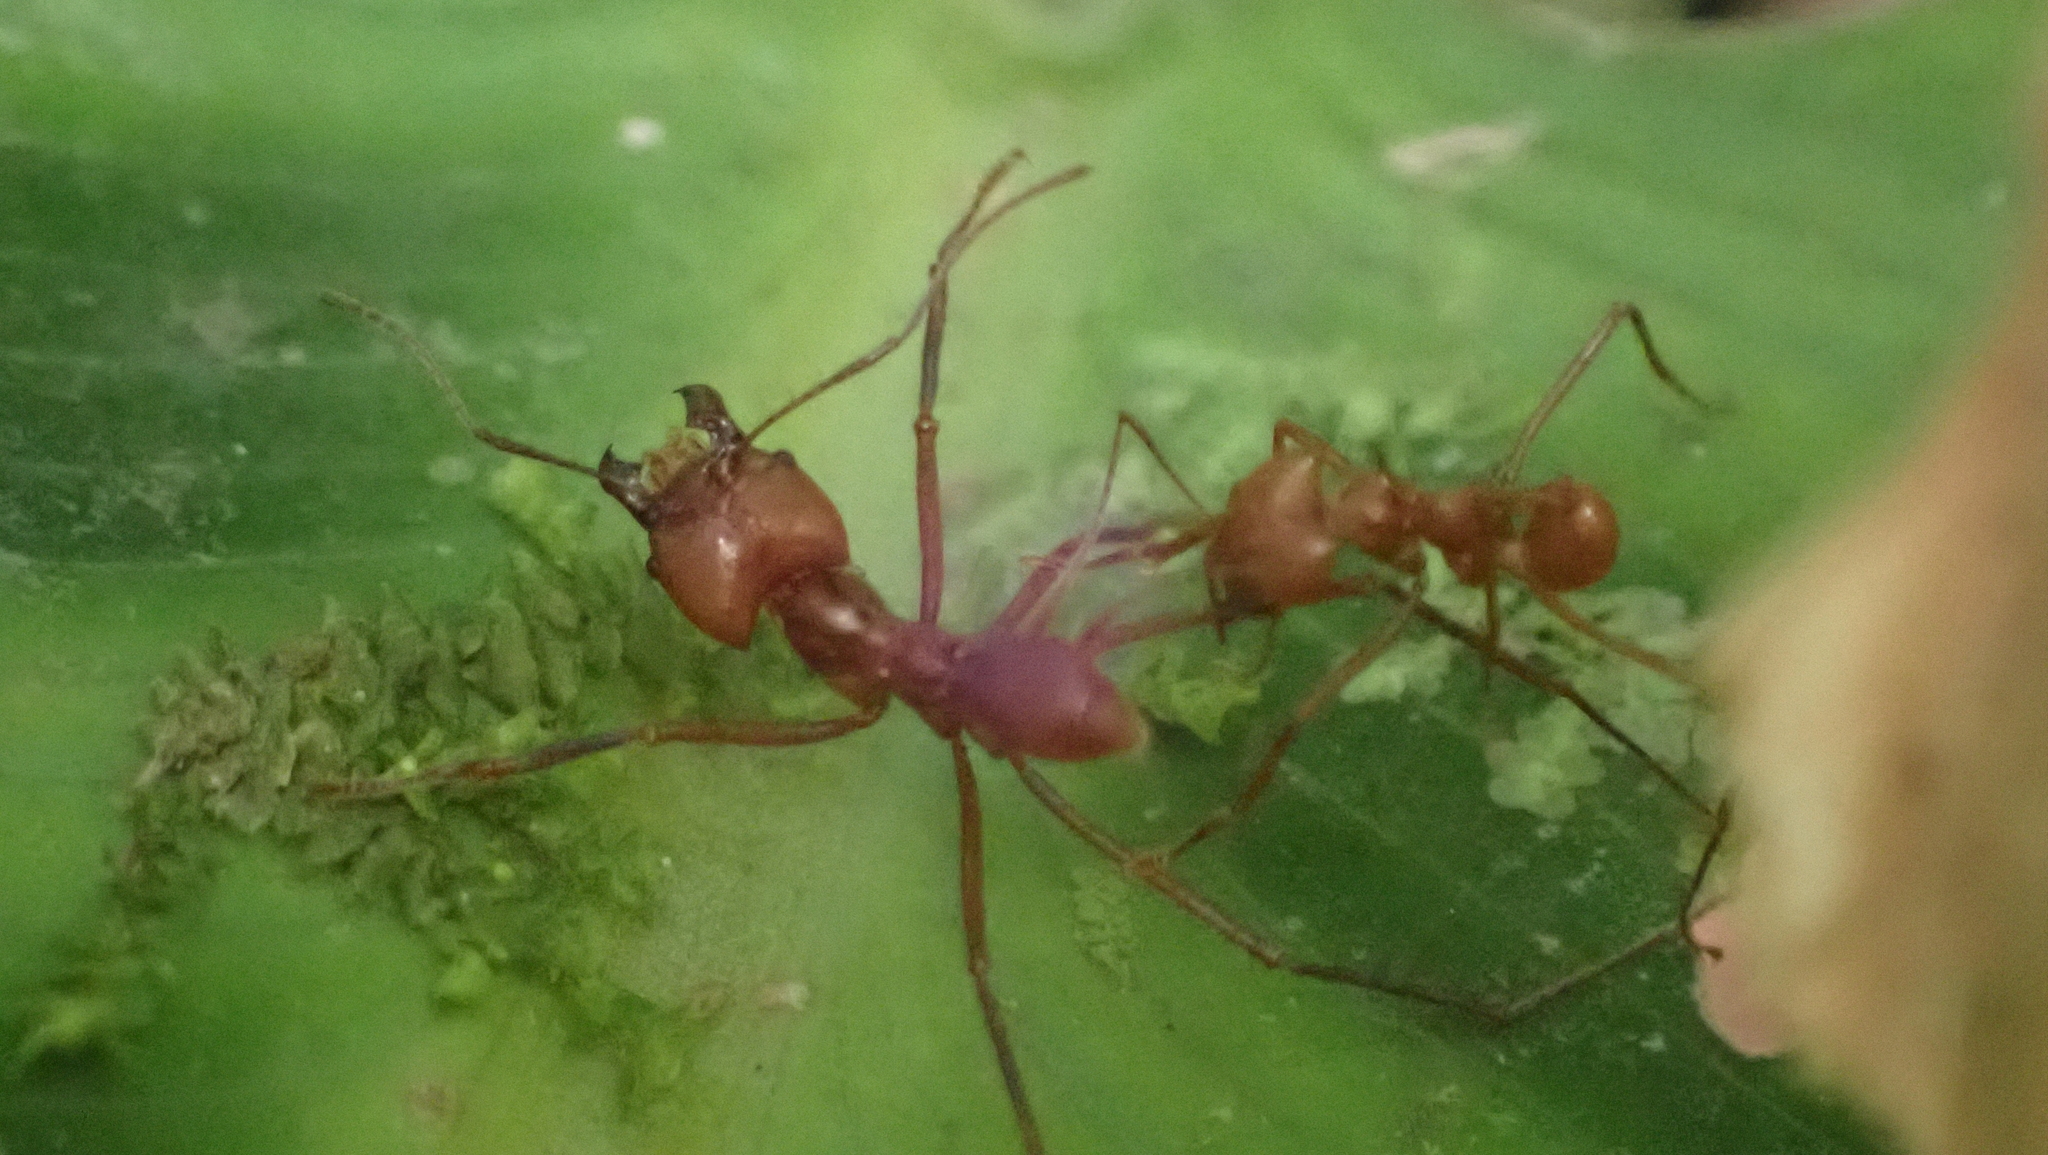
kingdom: Animalia
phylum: Arthropoda
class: Insecta
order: Hymenoptera
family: Formicidae
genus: Atta
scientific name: Atta cephalotes
